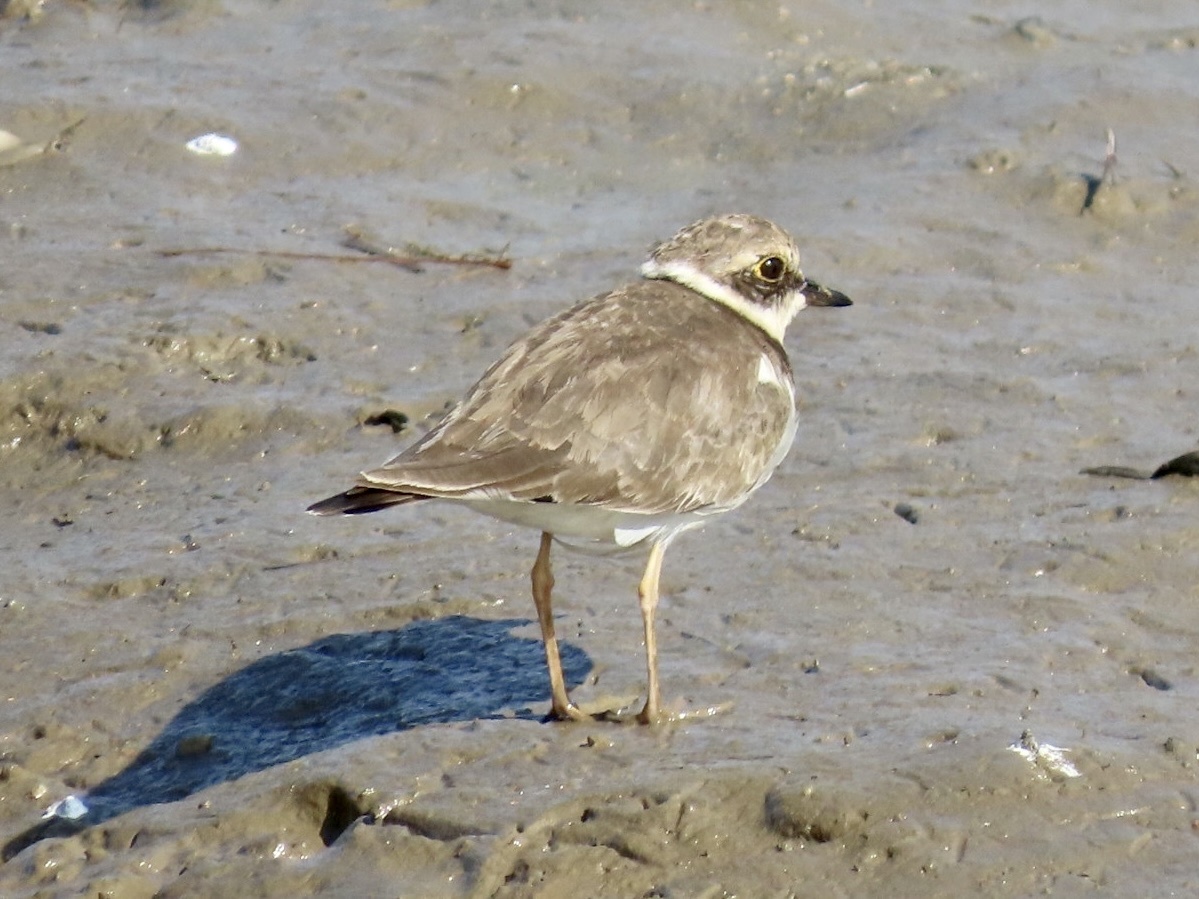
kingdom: Animalia
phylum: Chordata
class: Aves
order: Charadriiformes
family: Charadriidae
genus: Charadrius
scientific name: Charadrius dubius
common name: Little ringed plover
